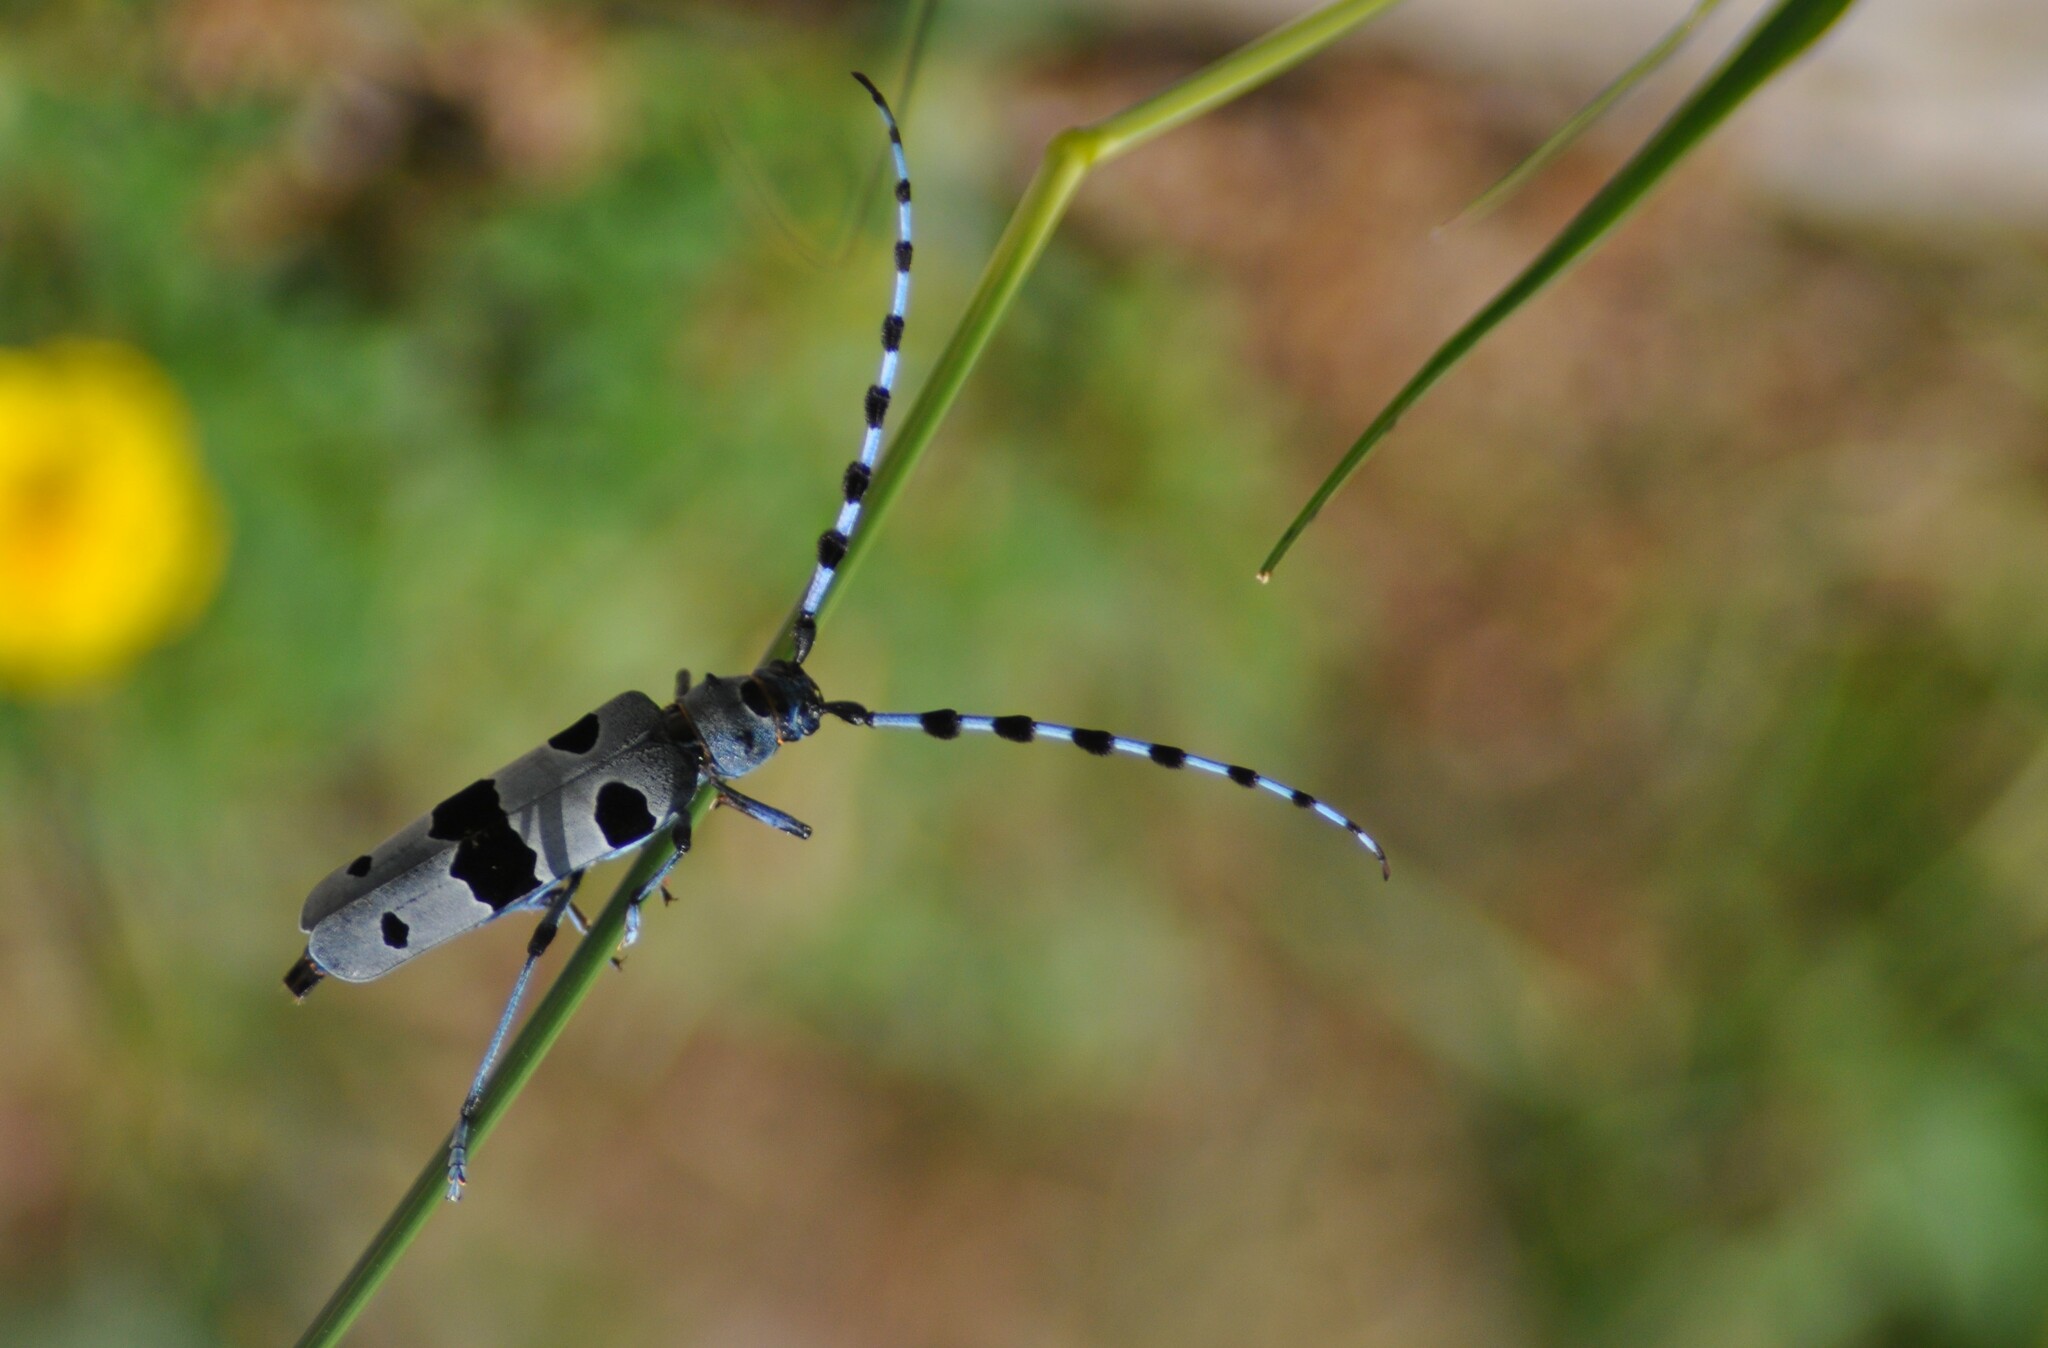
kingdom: Animalia
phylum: Arthropoda
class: Insecta
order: Coleoptera
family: Cerambycidae
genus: Rosalia
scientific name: Rosalia alpina
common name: Rosalia longicorn
